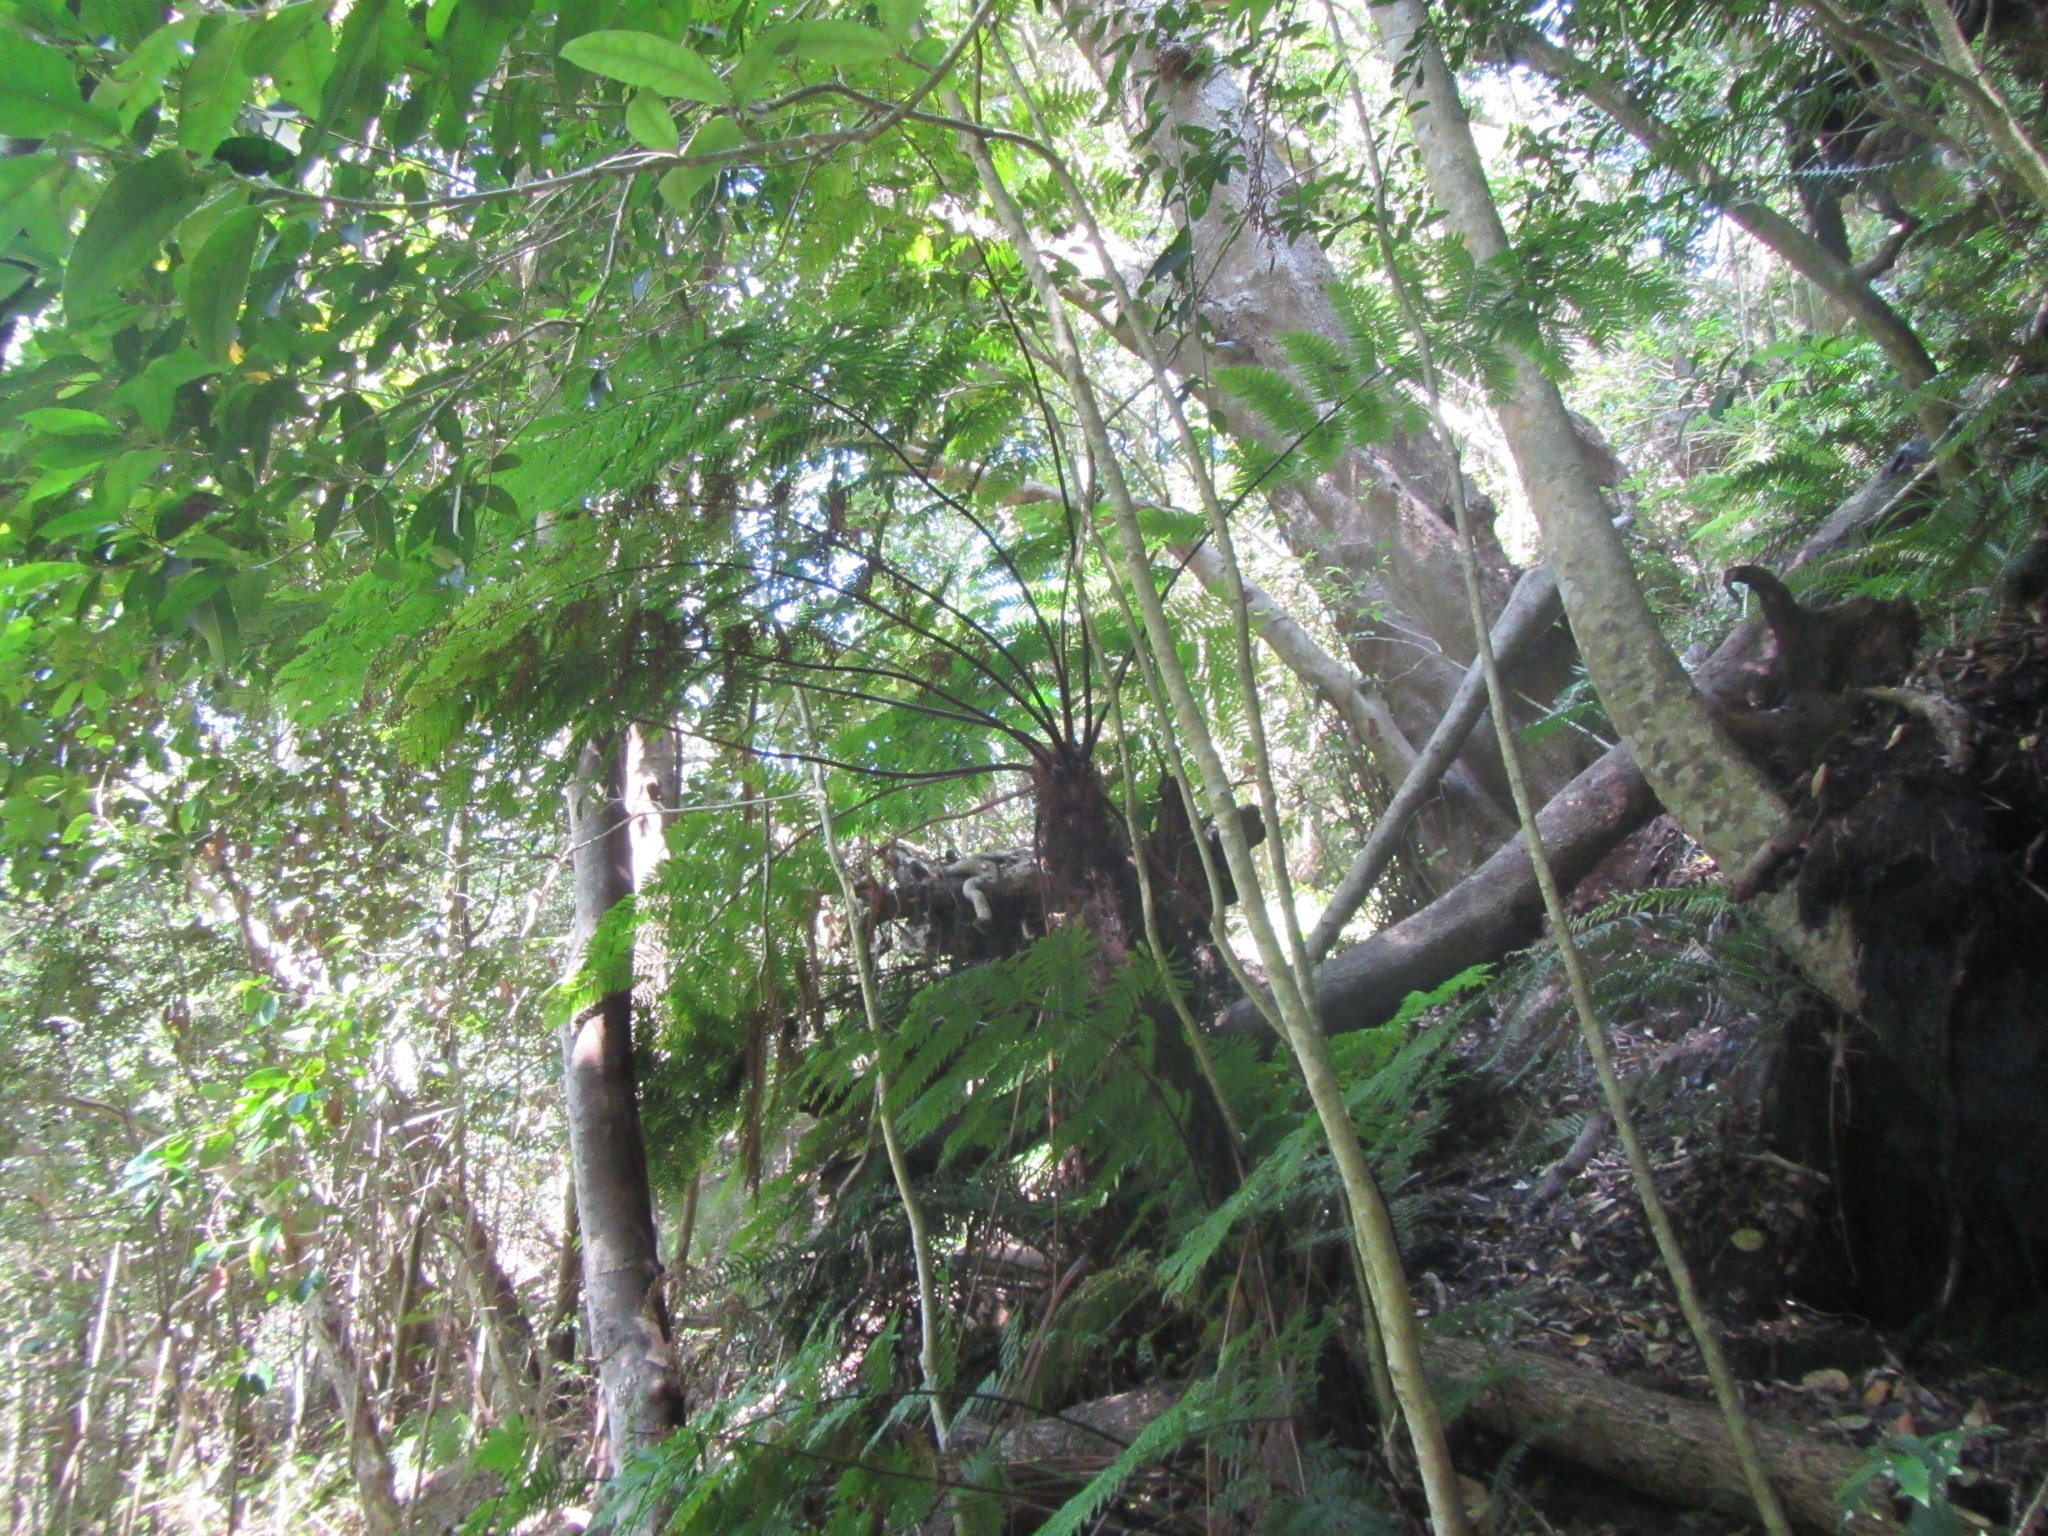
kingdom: Plantae
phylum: Tracheophyta
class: Polypodiopsida
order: Cyatheales
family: Cyatheaceae
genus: Gymnosphaera
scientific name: Gymnosphaera capensis
